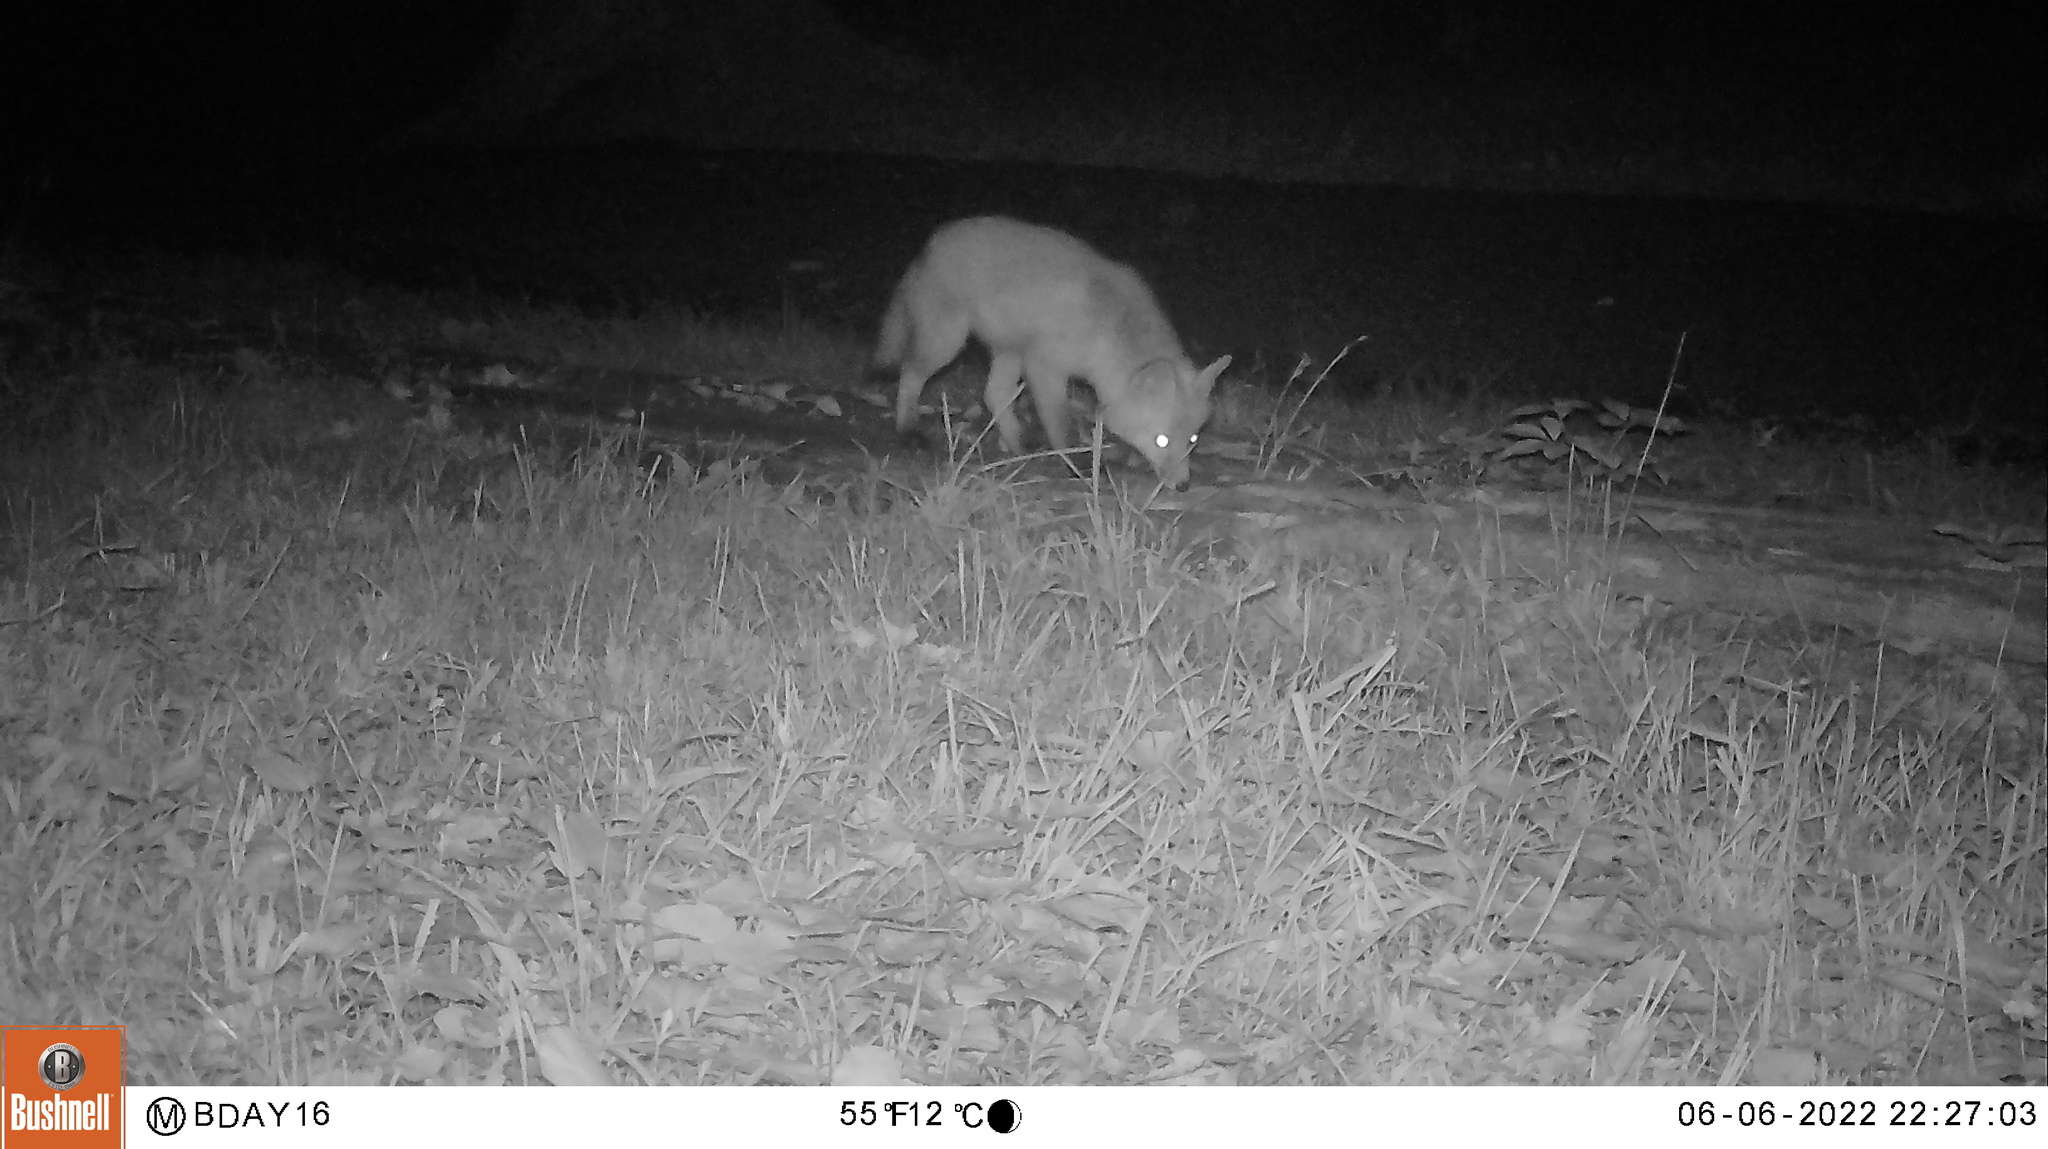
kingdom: Animalia
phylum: Chordata
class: Mammalia
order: Carnivora
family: Canidae
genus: Canis
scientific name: Canis latrans
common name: Coyote
